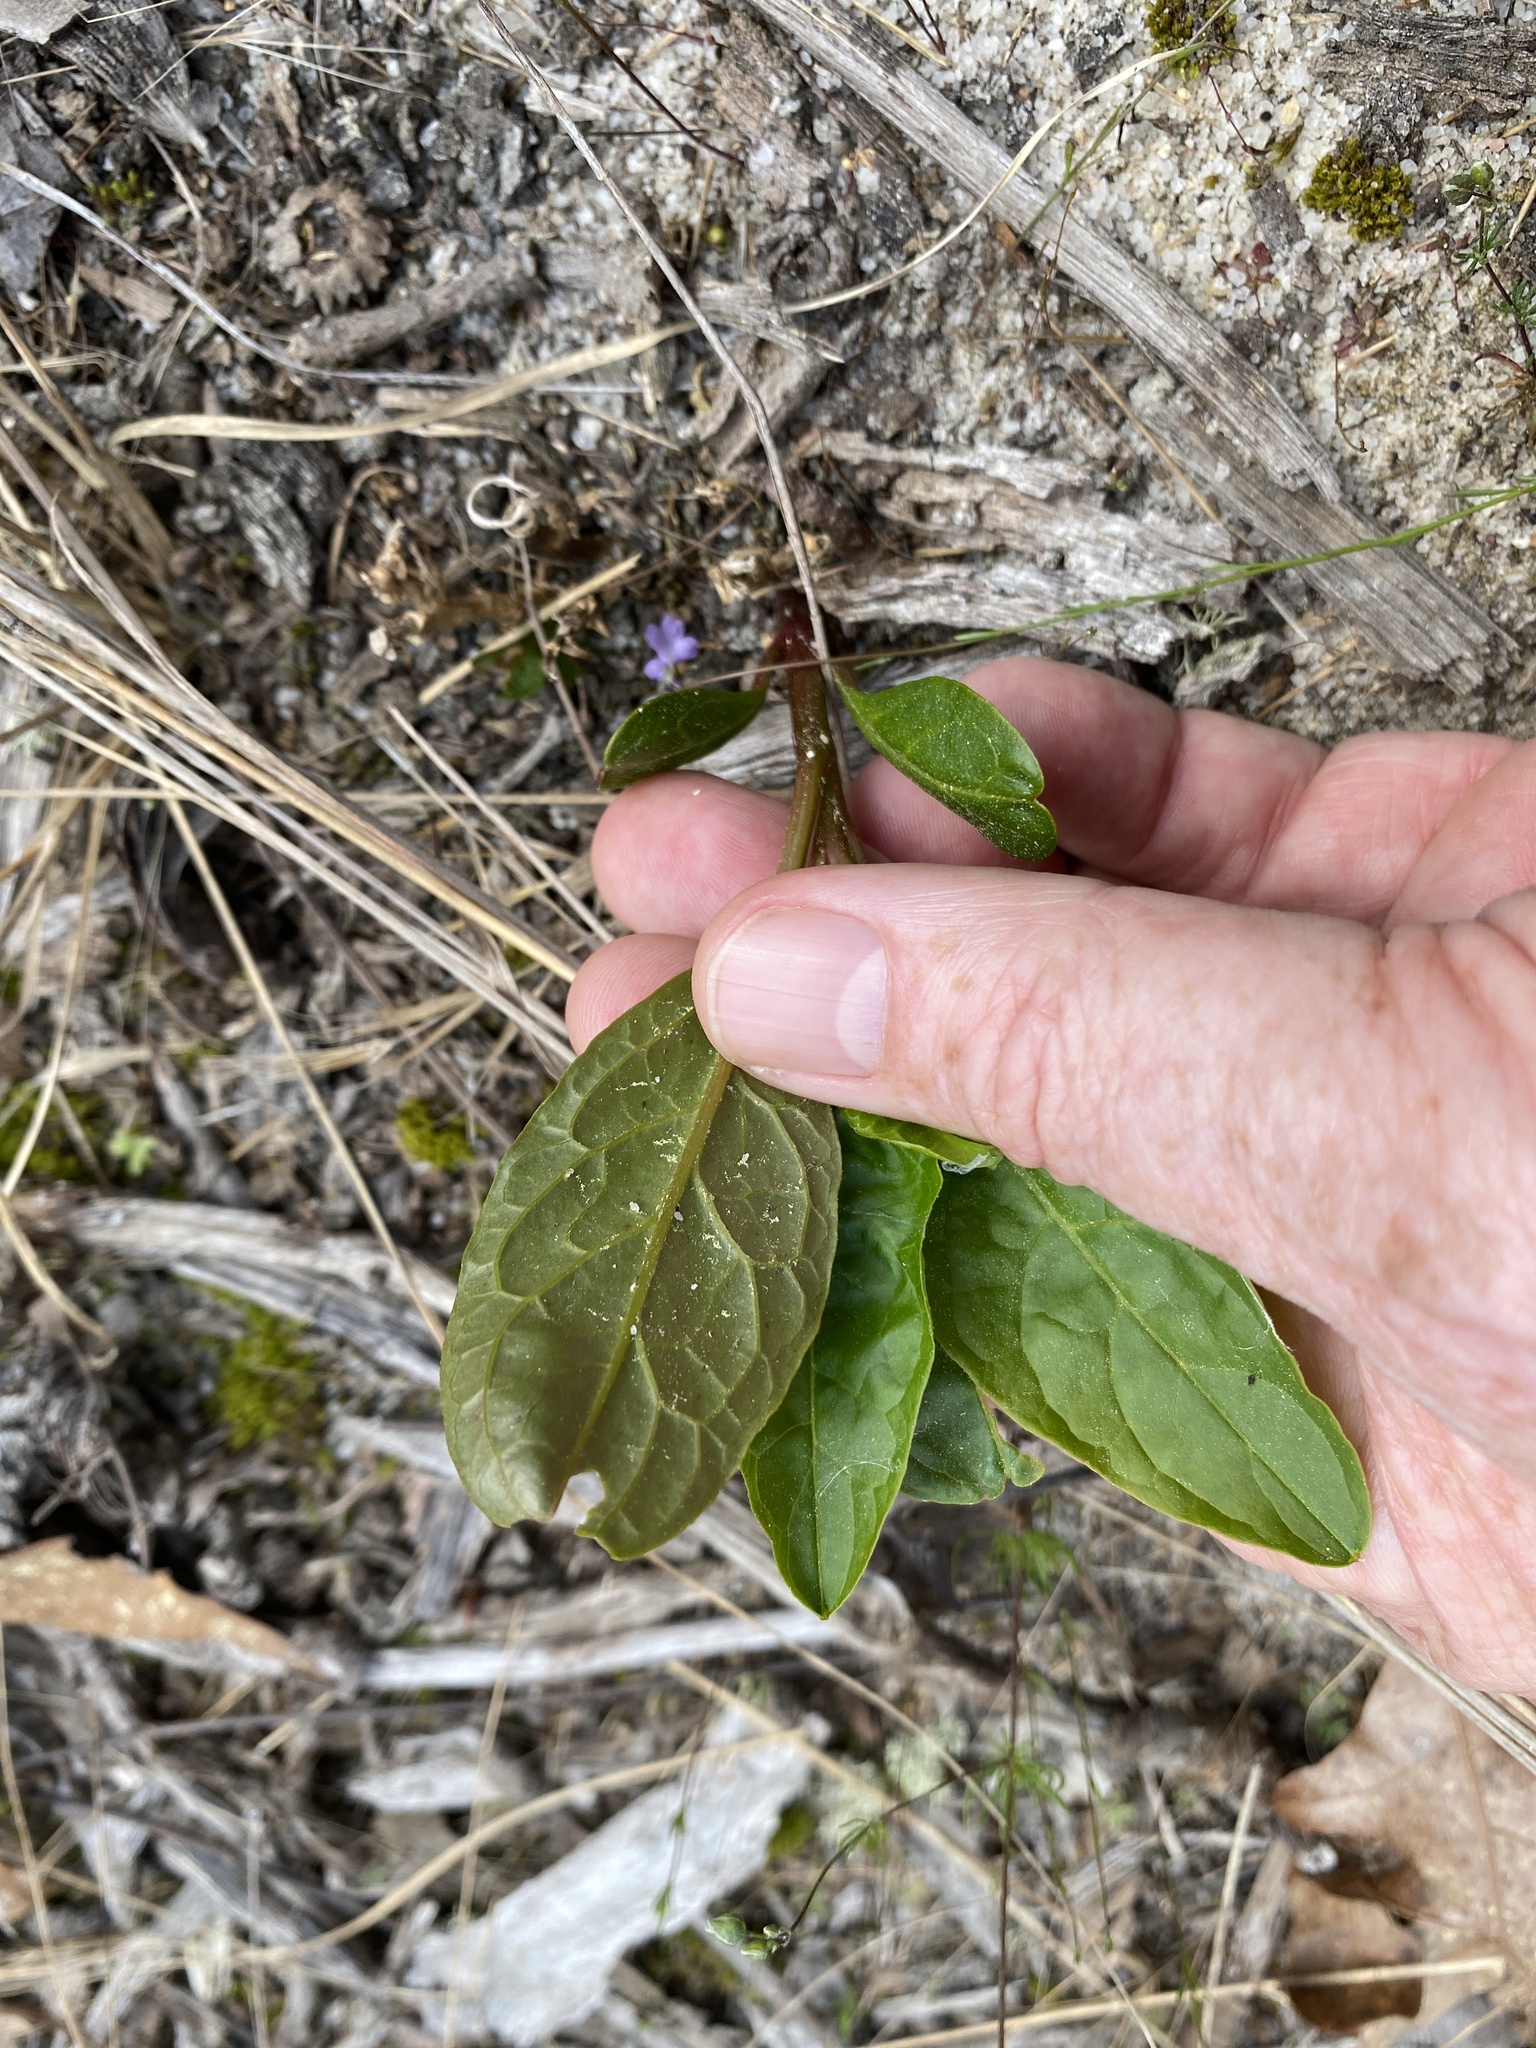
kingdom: Plantae
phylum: Tracheophyta
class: Magnoliopsida
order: Caryophyllales
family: Phytolaccaceae
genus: Phytolacca
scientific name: Phytolacca americana
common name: American pokeweed
